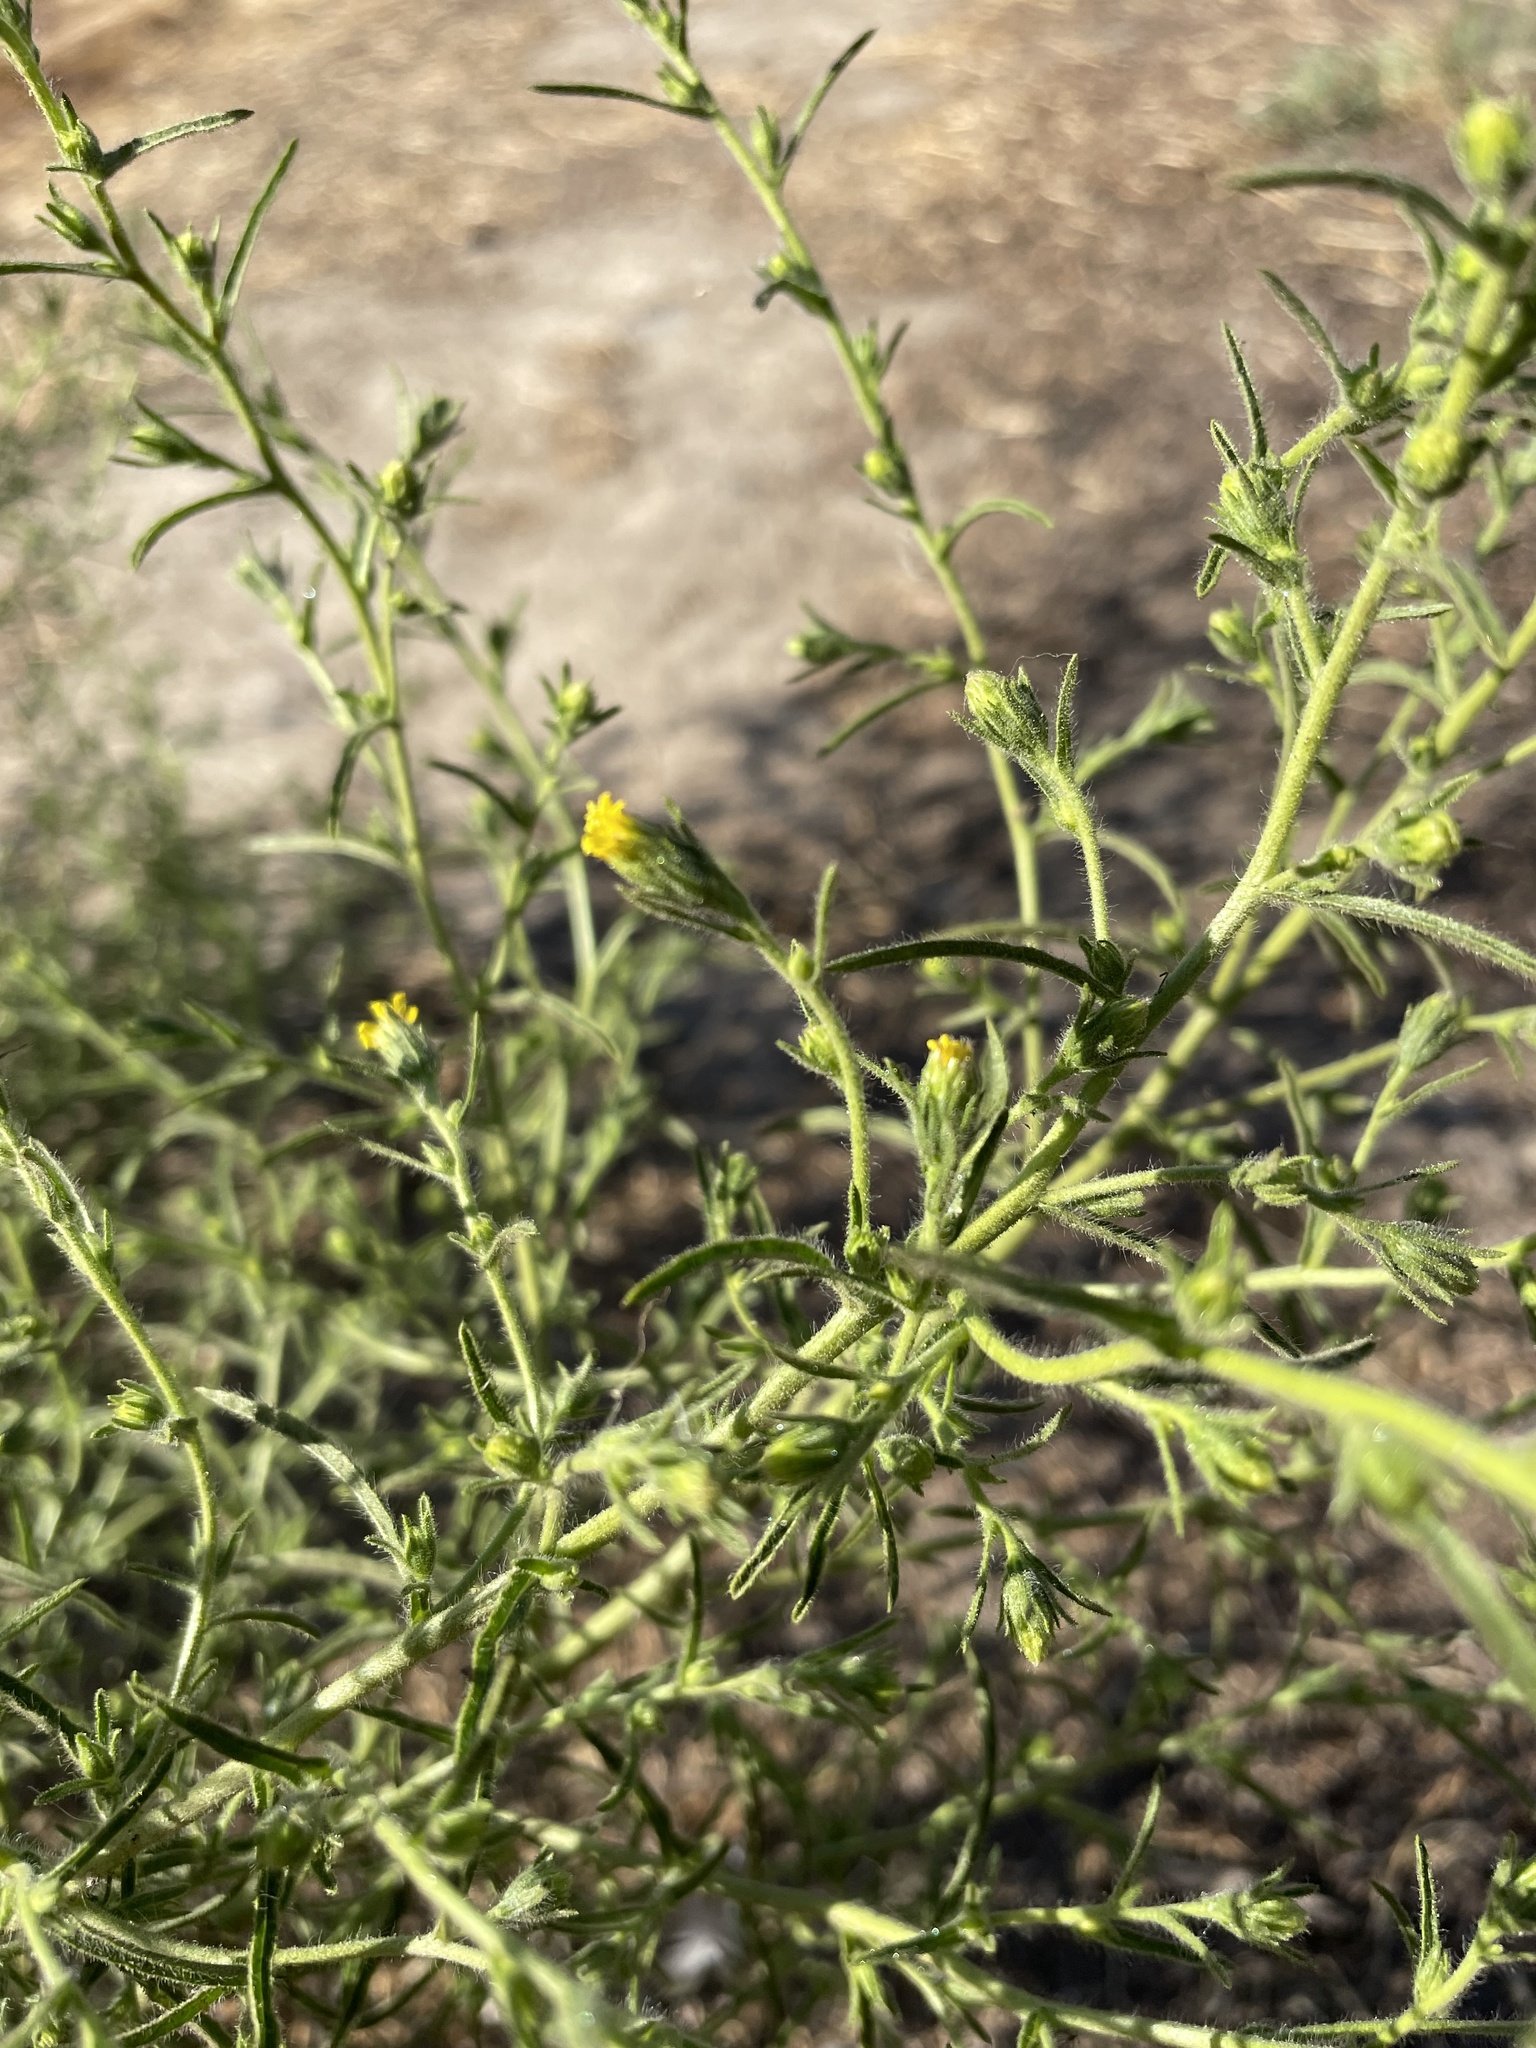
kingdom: Plantae
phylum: Tracheophyta
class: Magnoliopsida
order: Asterales
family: Asteraceae
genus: Dittrichia
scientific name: Dittrichia graveolens
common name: Stinking fleabane
